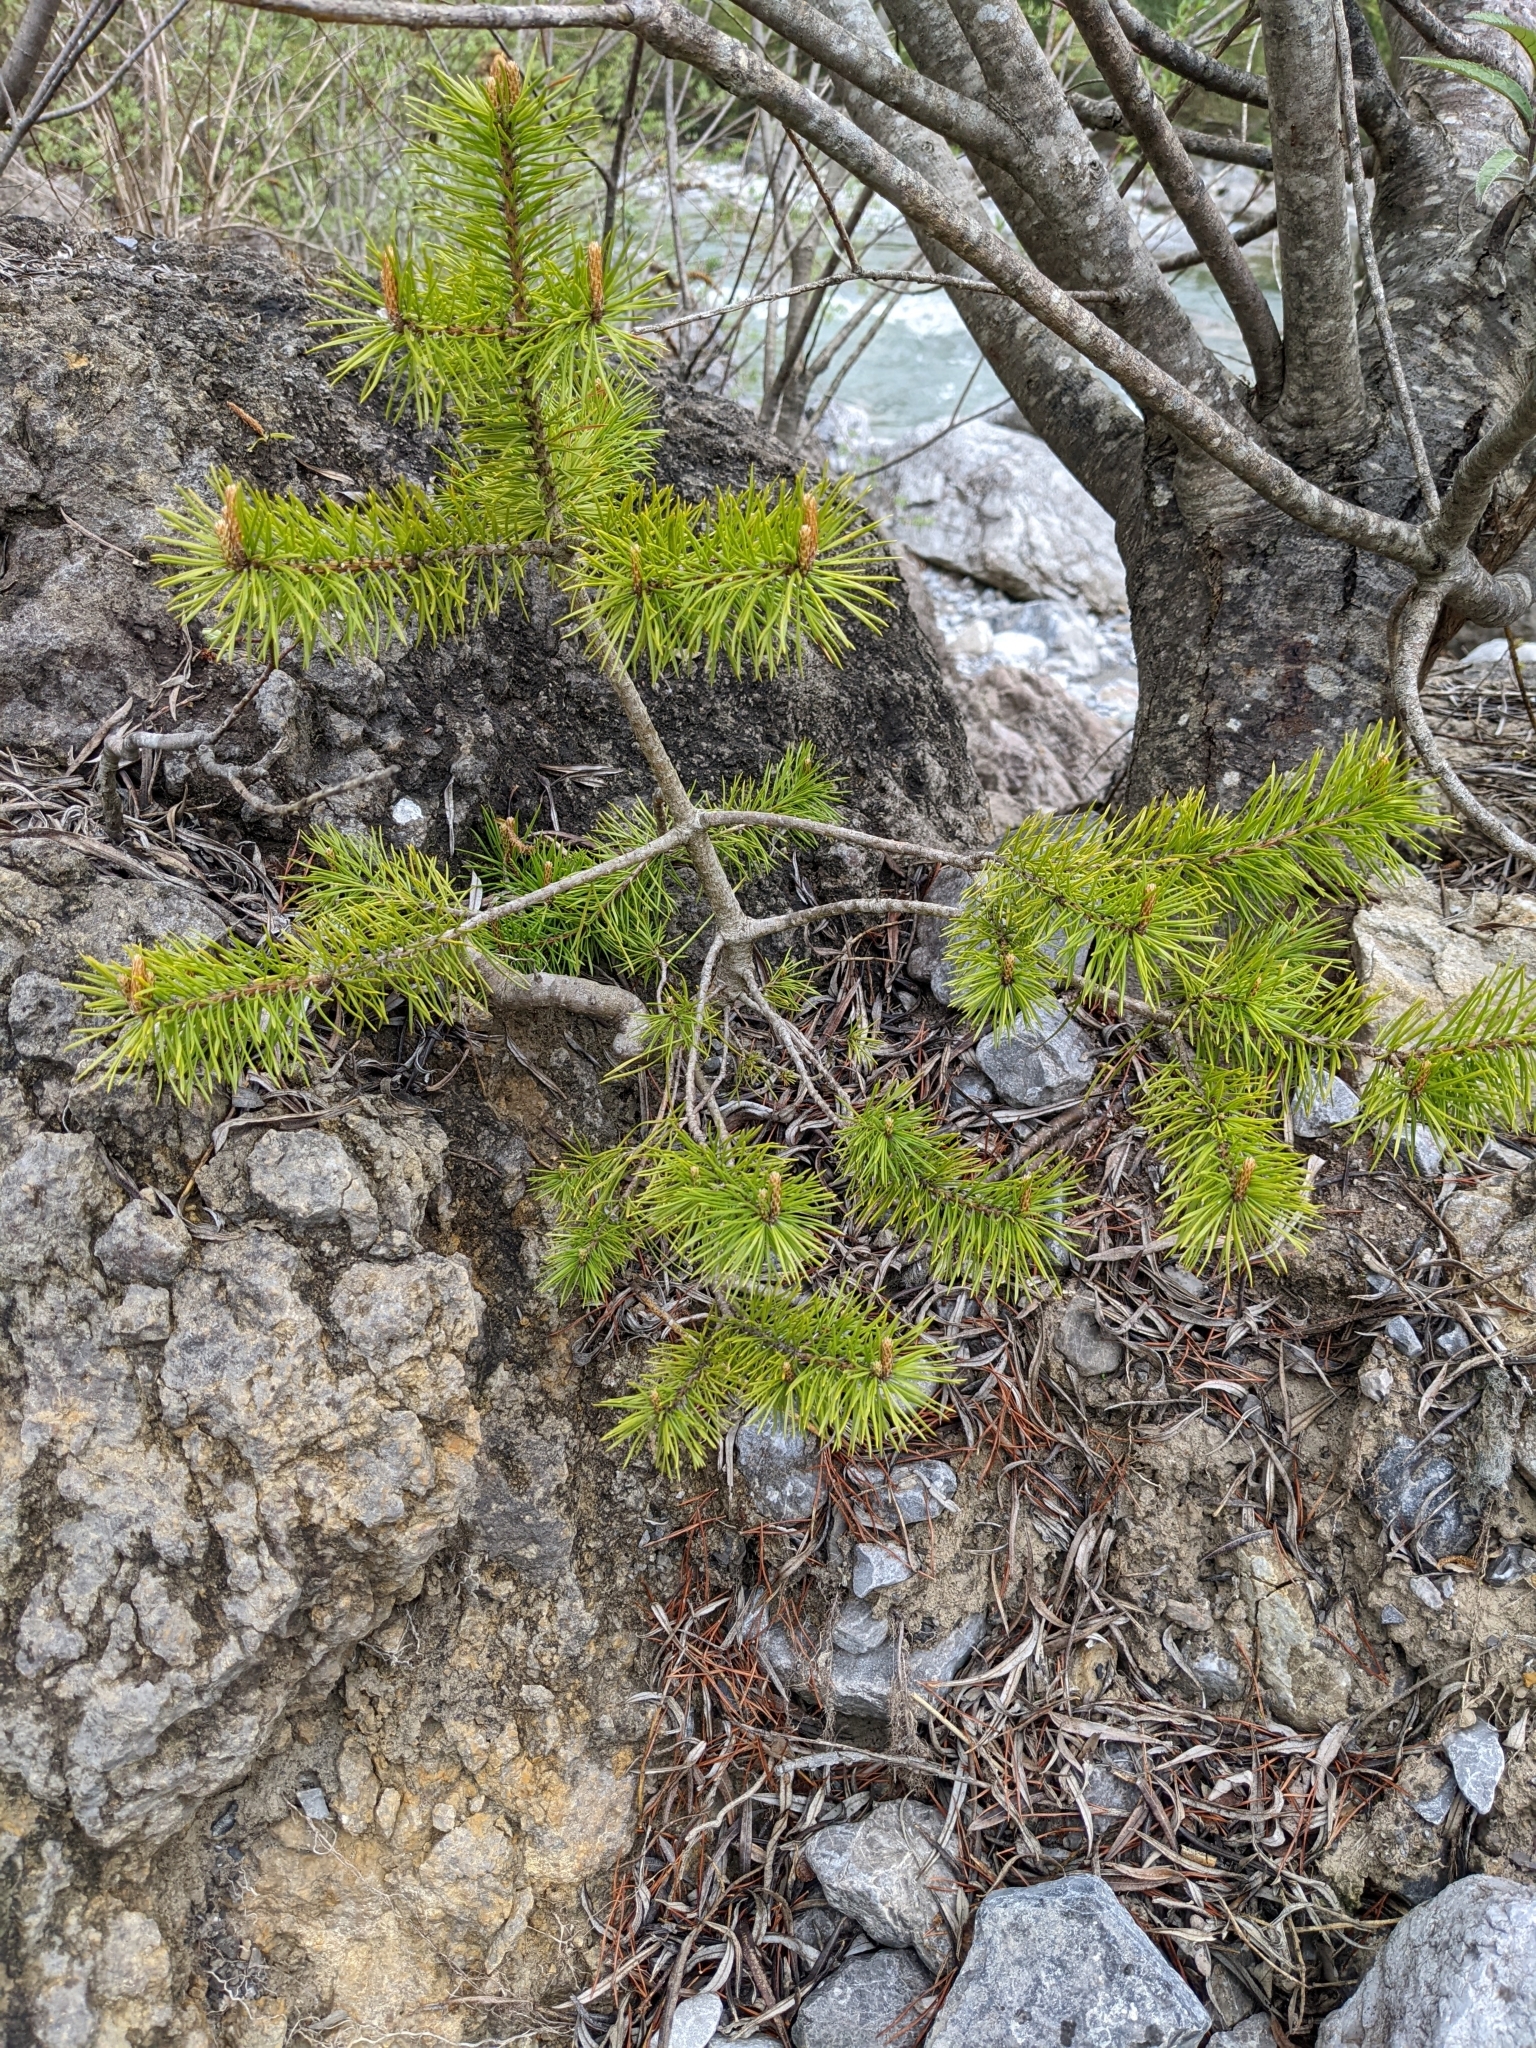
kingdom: Plantae
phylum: Tracheophyta
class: Pinopsida
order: Pinales
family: Pinaceae
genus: Pinus
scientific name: Pinus mugo
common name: Mugo pine
